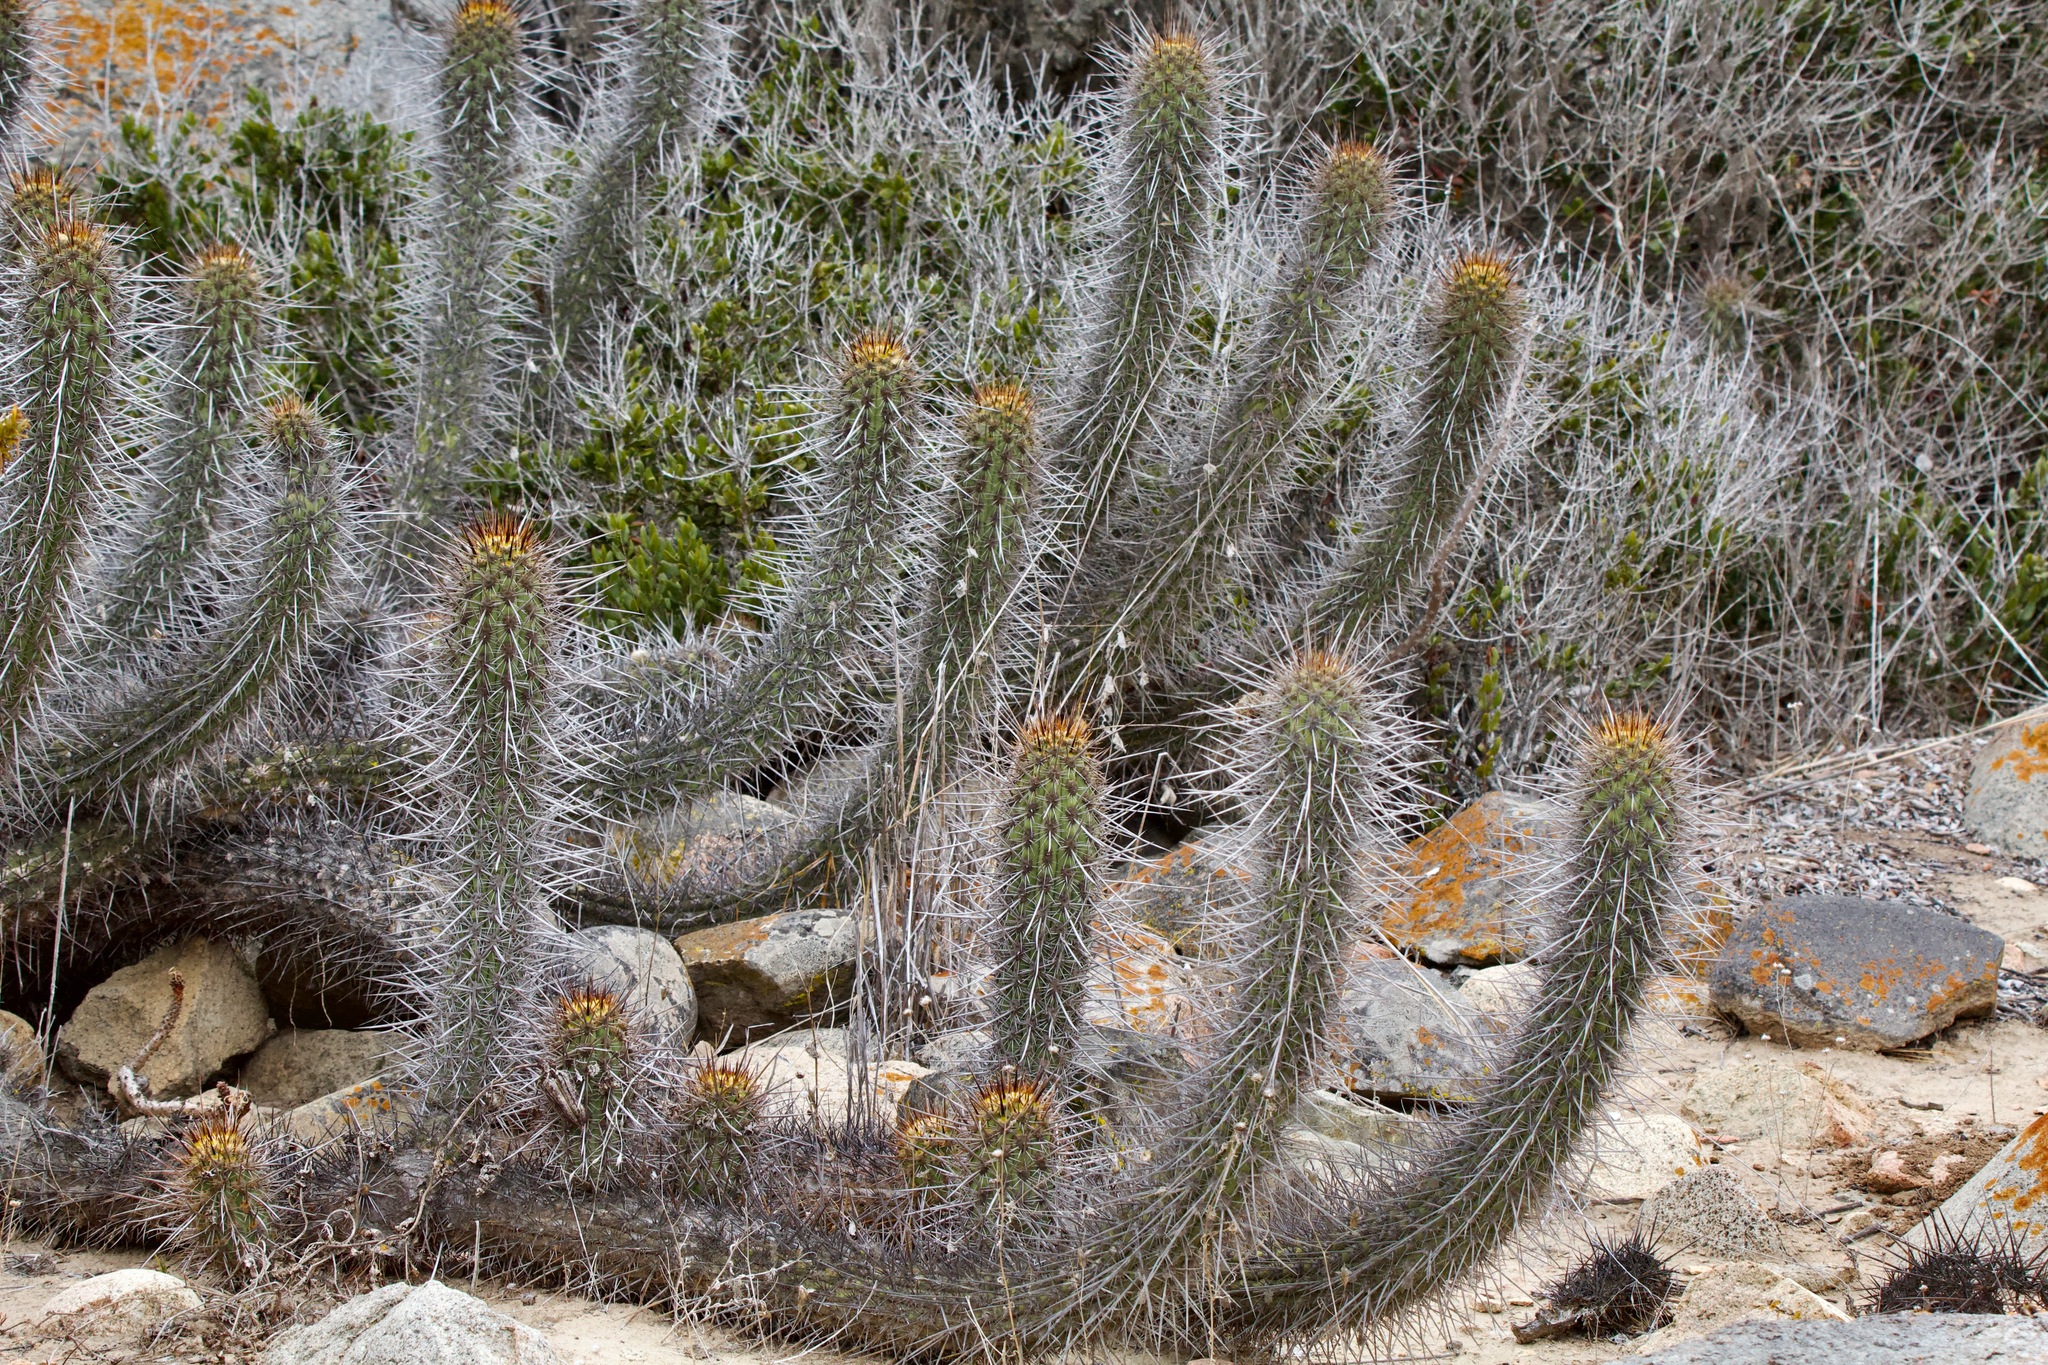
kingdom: Plantae
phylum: Tracheophyta
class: Magnoliopsida
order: Caryophyllales
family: Cactaceae
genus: Leucostele
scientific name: Leucostele deserticola
